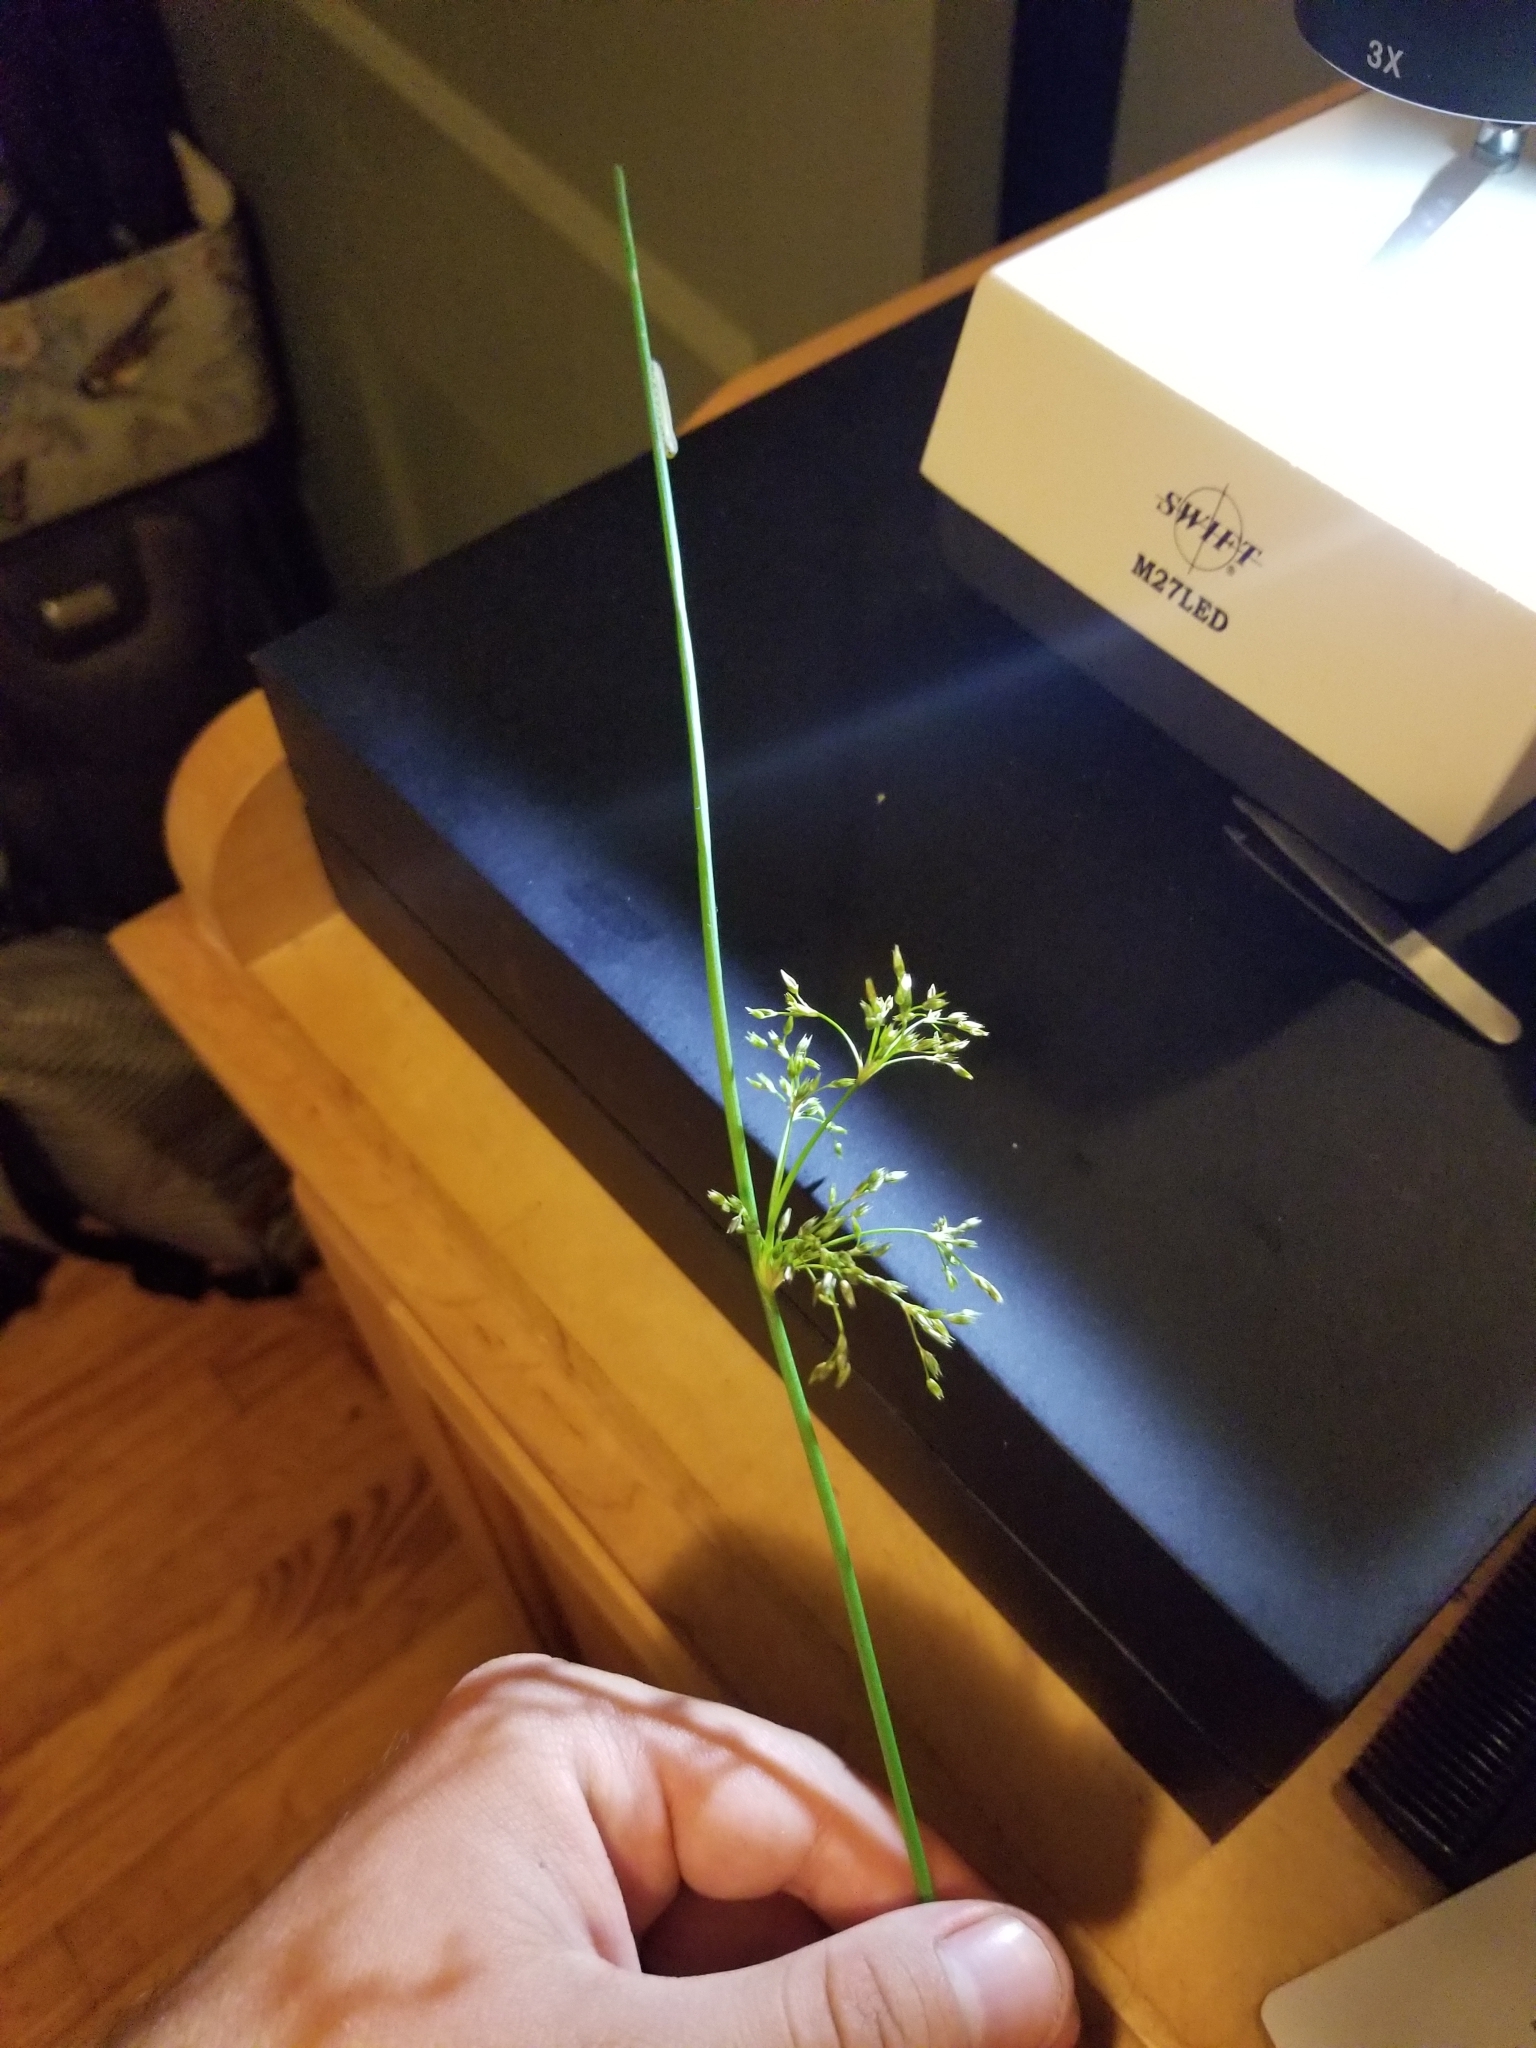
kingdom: Plantae
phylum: Tracheophyta
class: Liliopsida
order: Poales
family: Juncaceae
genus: Juncus
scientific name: Juncus effusus
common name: Soft rush
